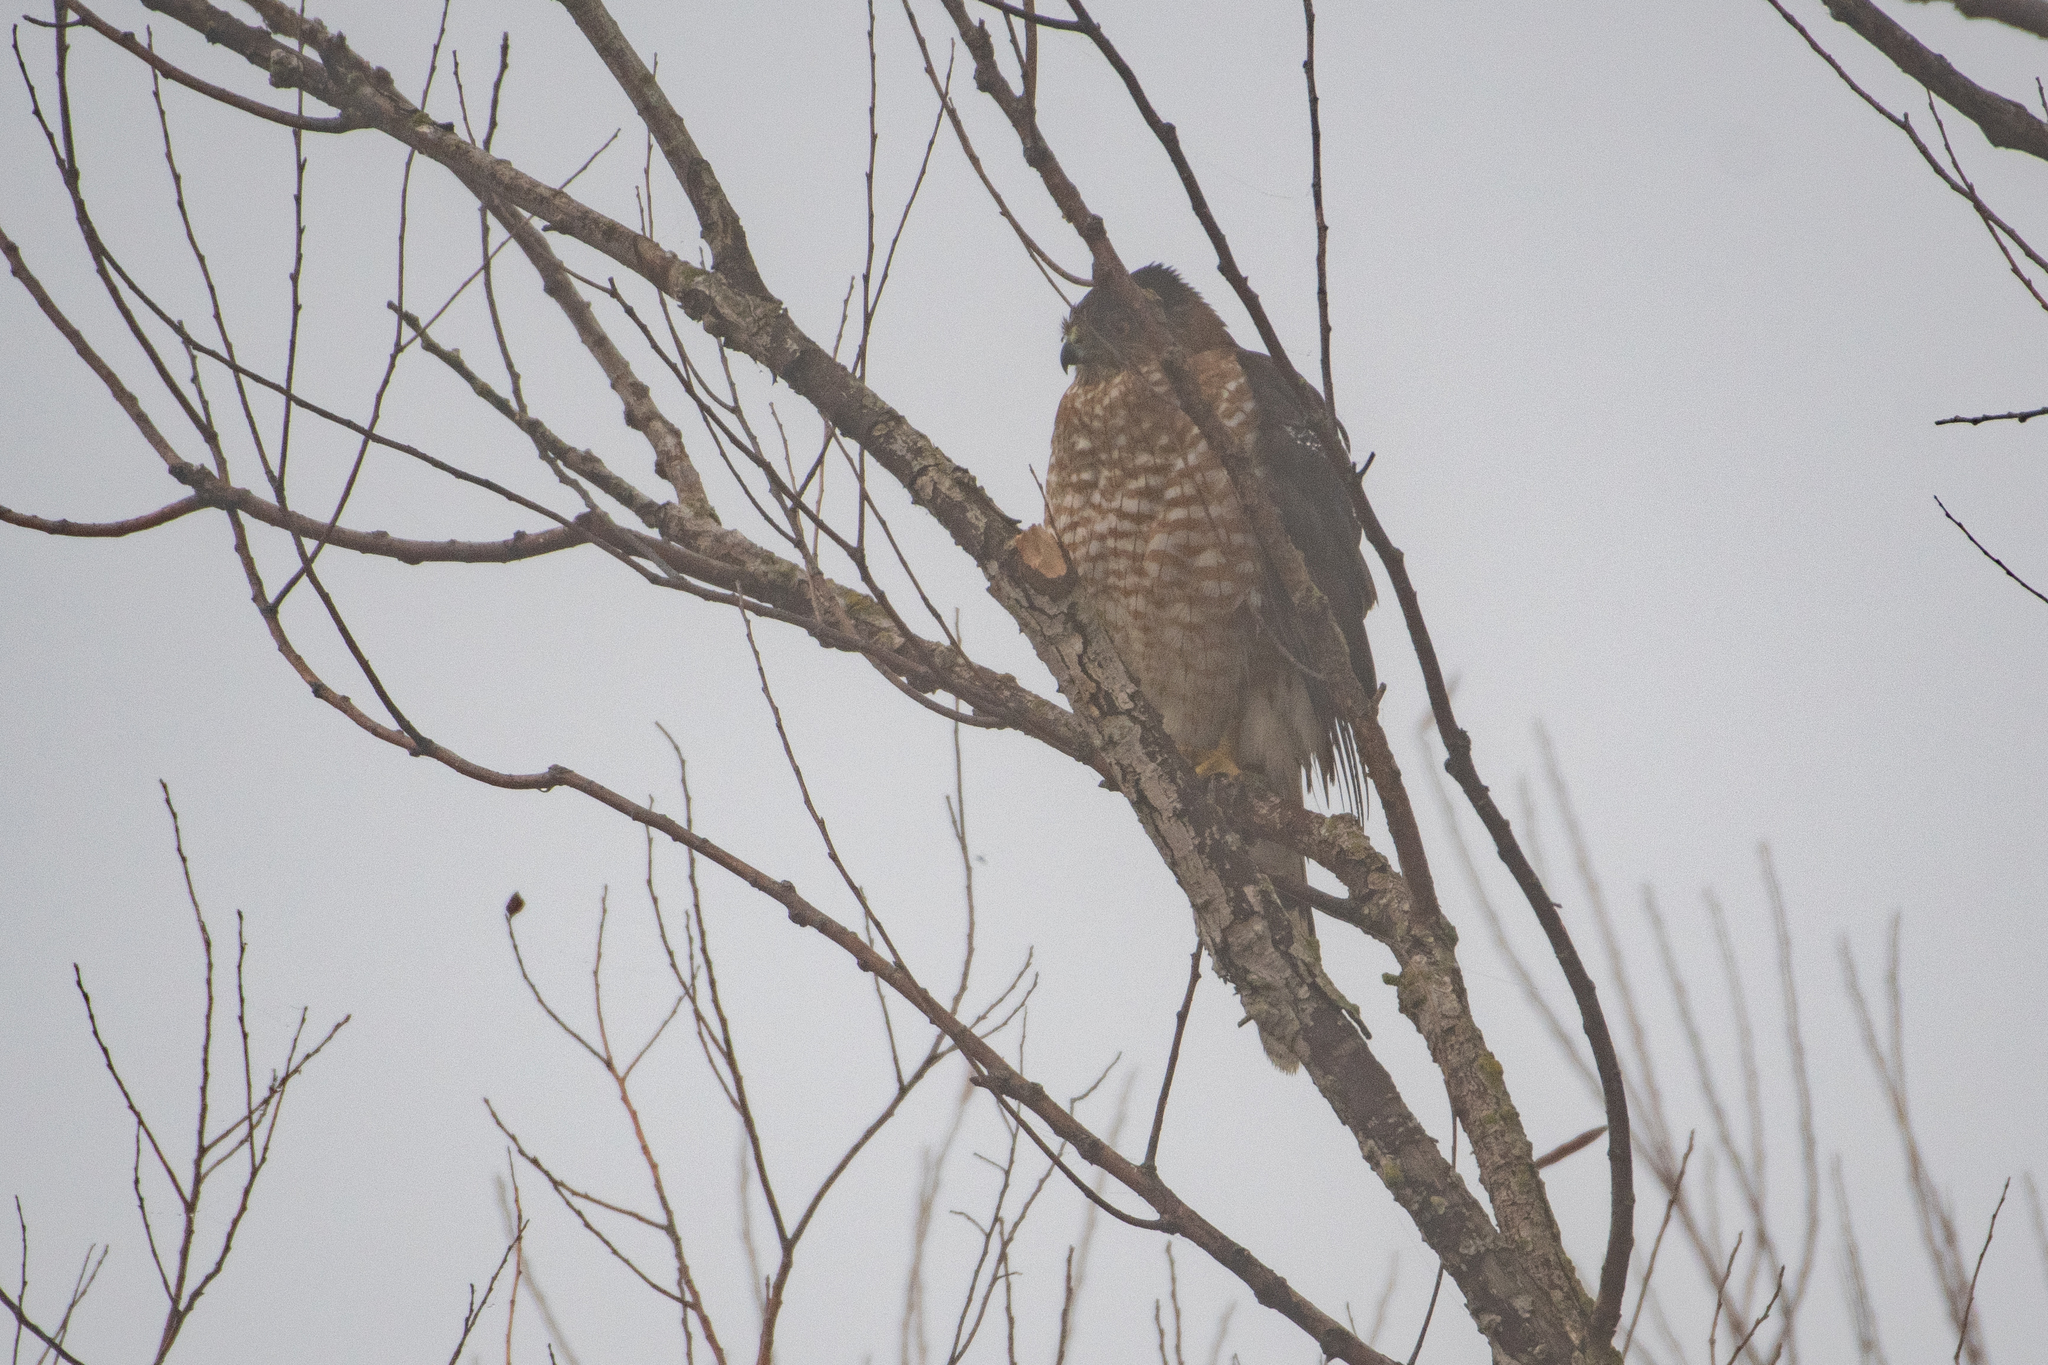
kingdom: Animalia
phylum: Chordata
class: Aves
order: Accipitriformes
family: Accipitridae
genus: Accipiter
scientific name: Accipiter cooperii
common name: Cooper's hawk
